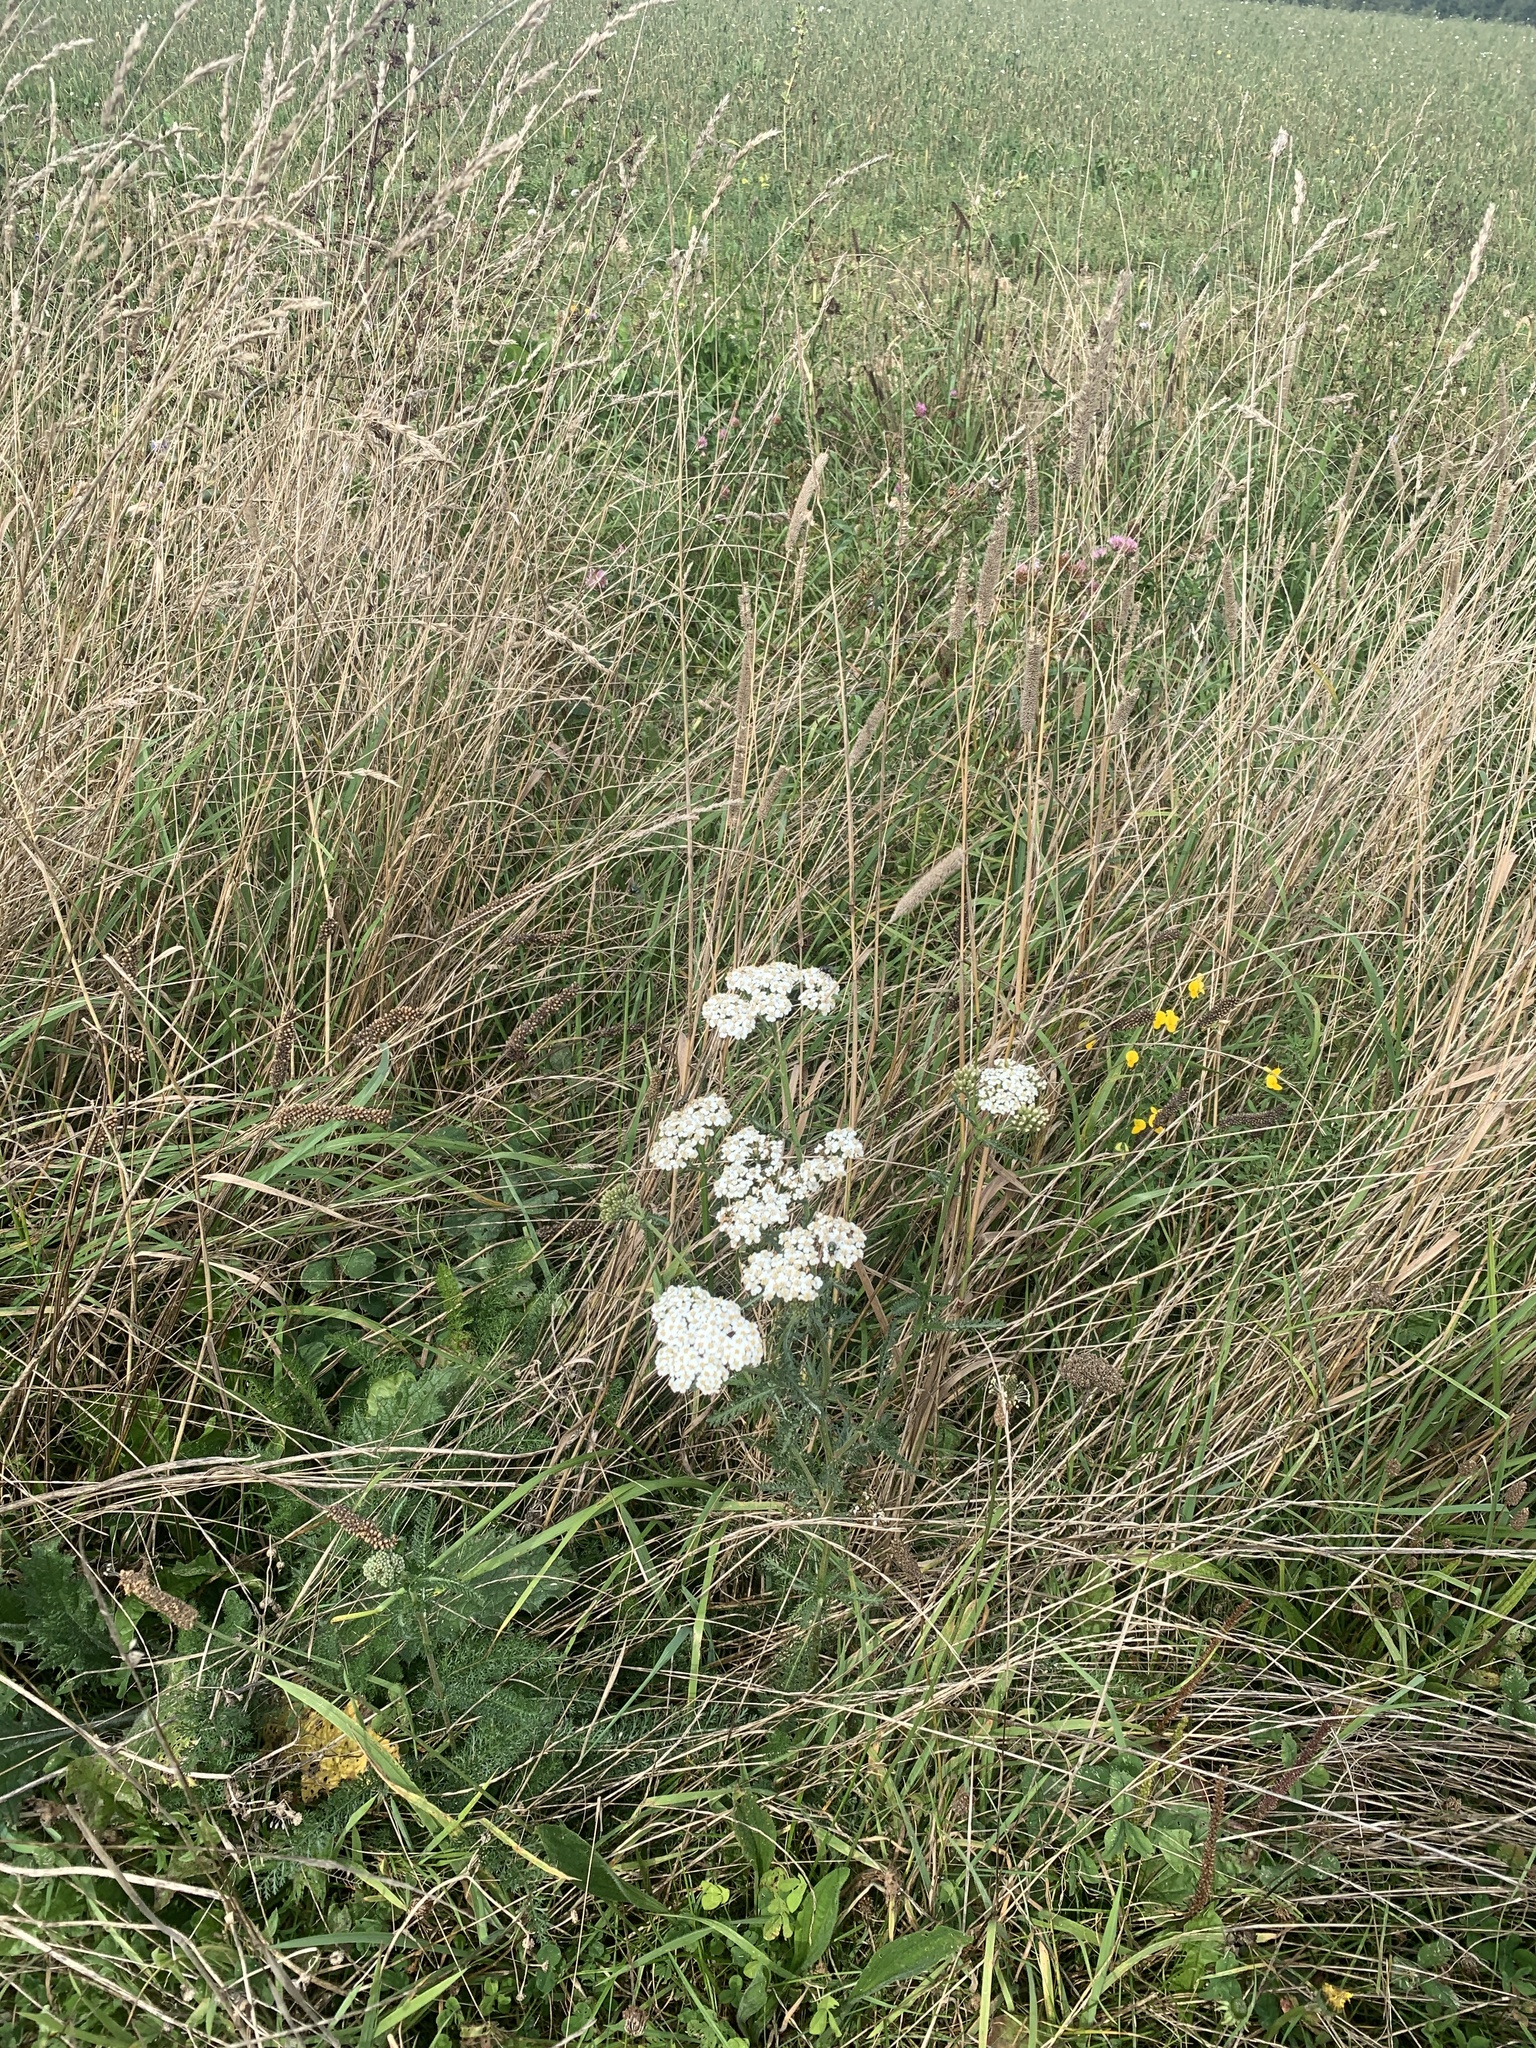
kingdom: Plantae
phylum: Tracheophyta
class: Magnoliopsida
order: Asterales
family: Asteraceae
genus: Achillea
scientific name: Achillea millefolium
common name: Yarrow
